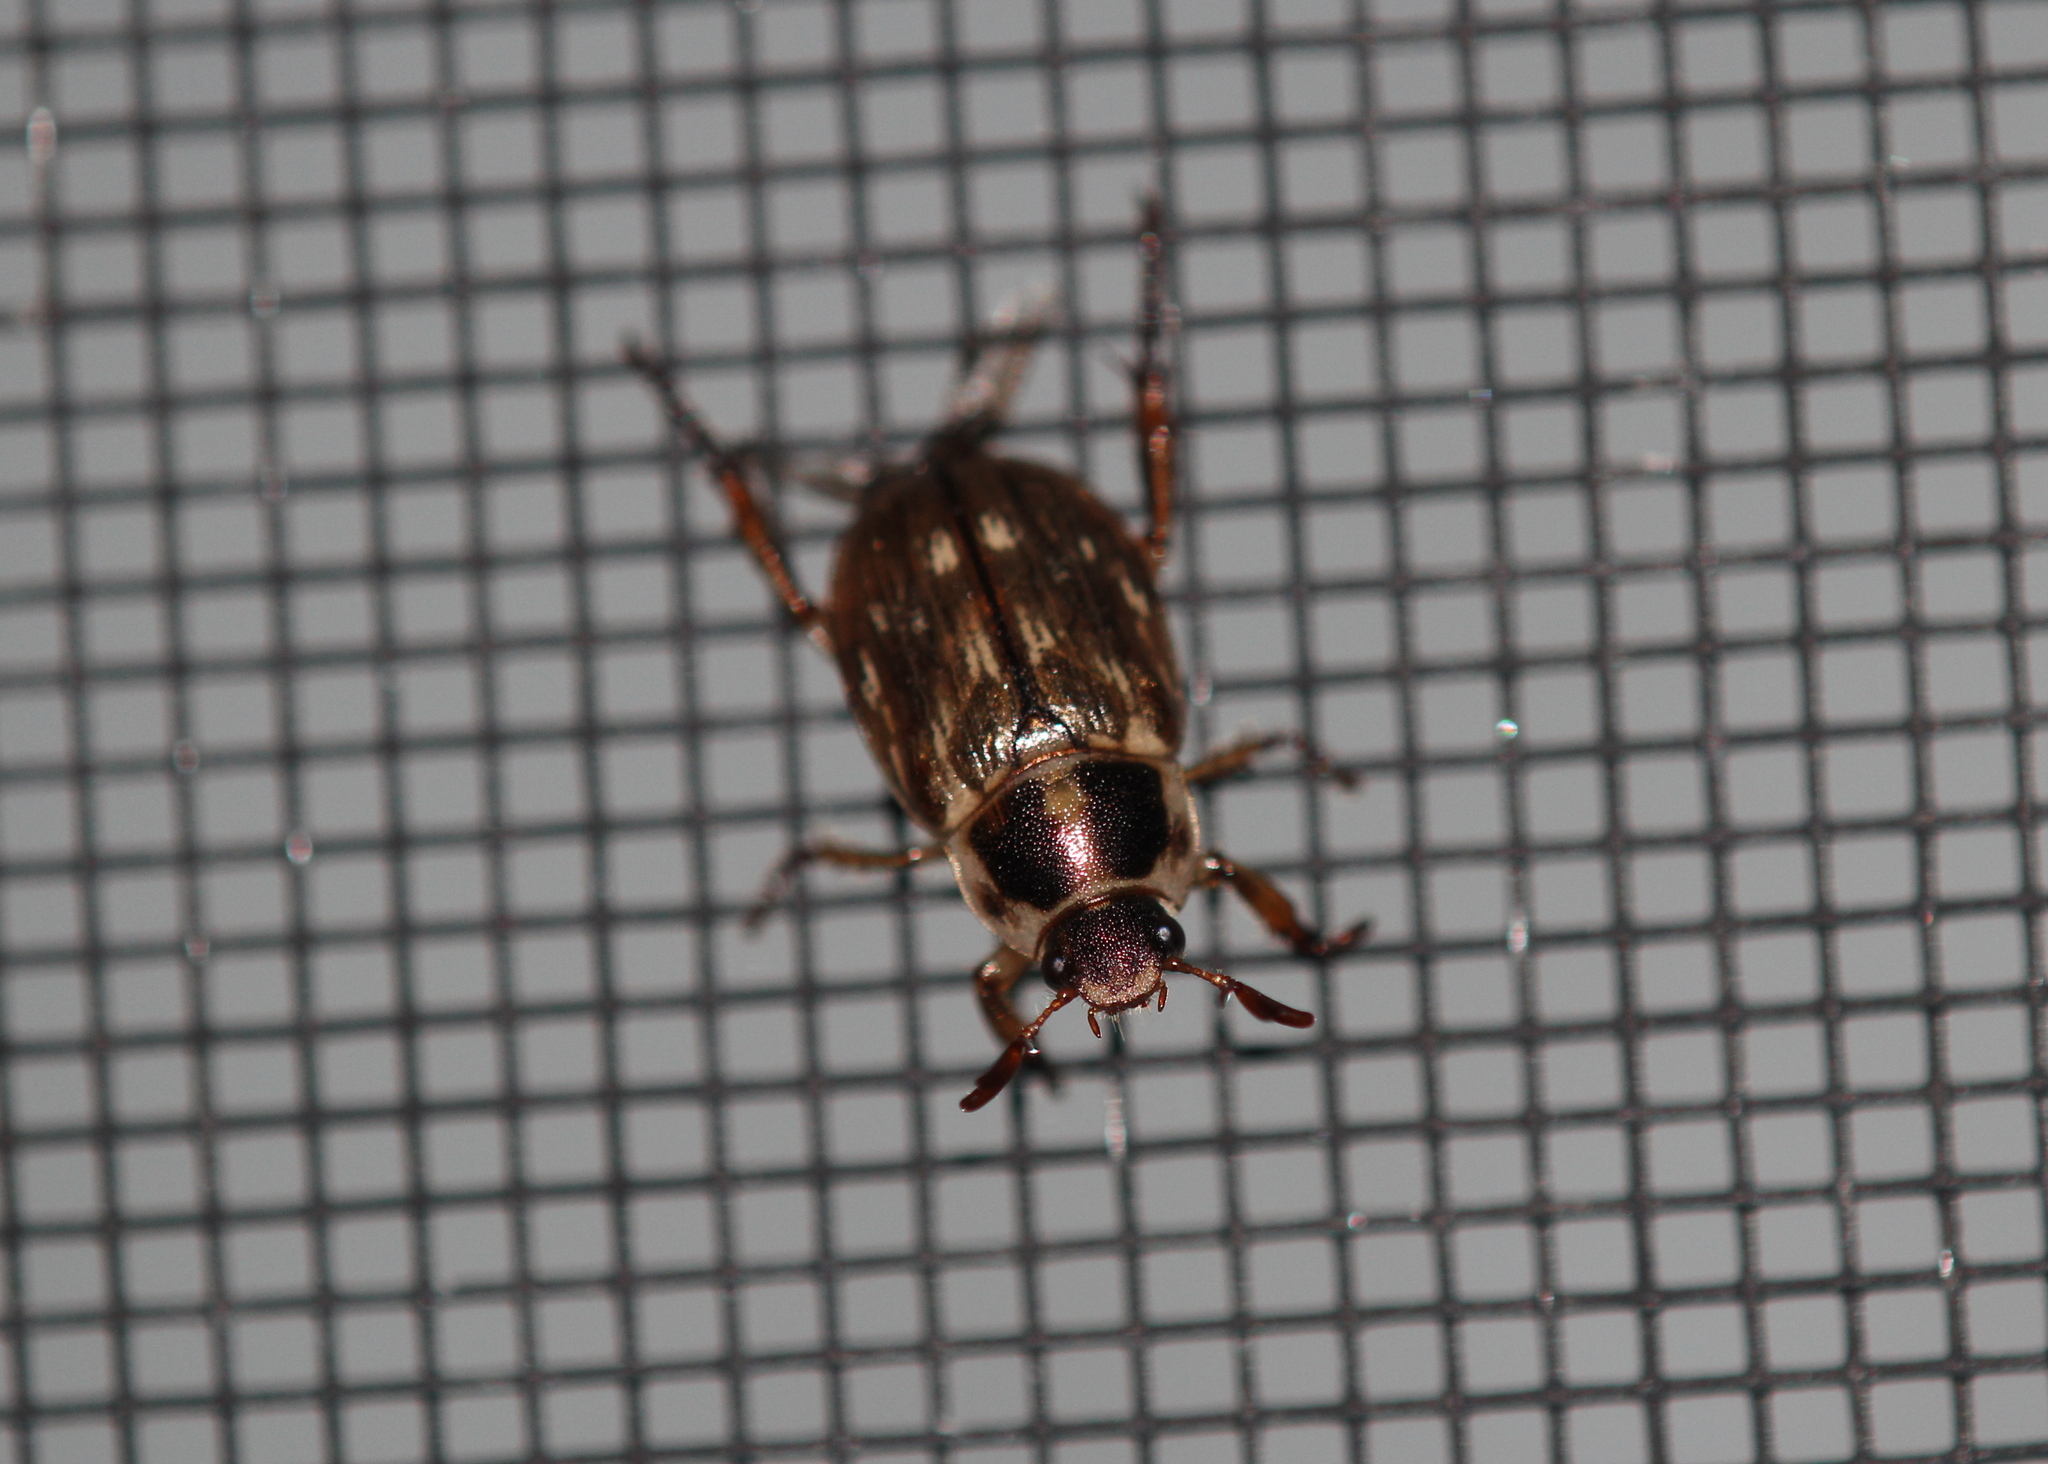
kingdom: Animalia
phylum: Arthropoda
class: Insecta
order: Coleoptera
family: Scarabaeidae
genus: Exomala
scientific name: Exomala orientalis
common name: Oriental beetle
